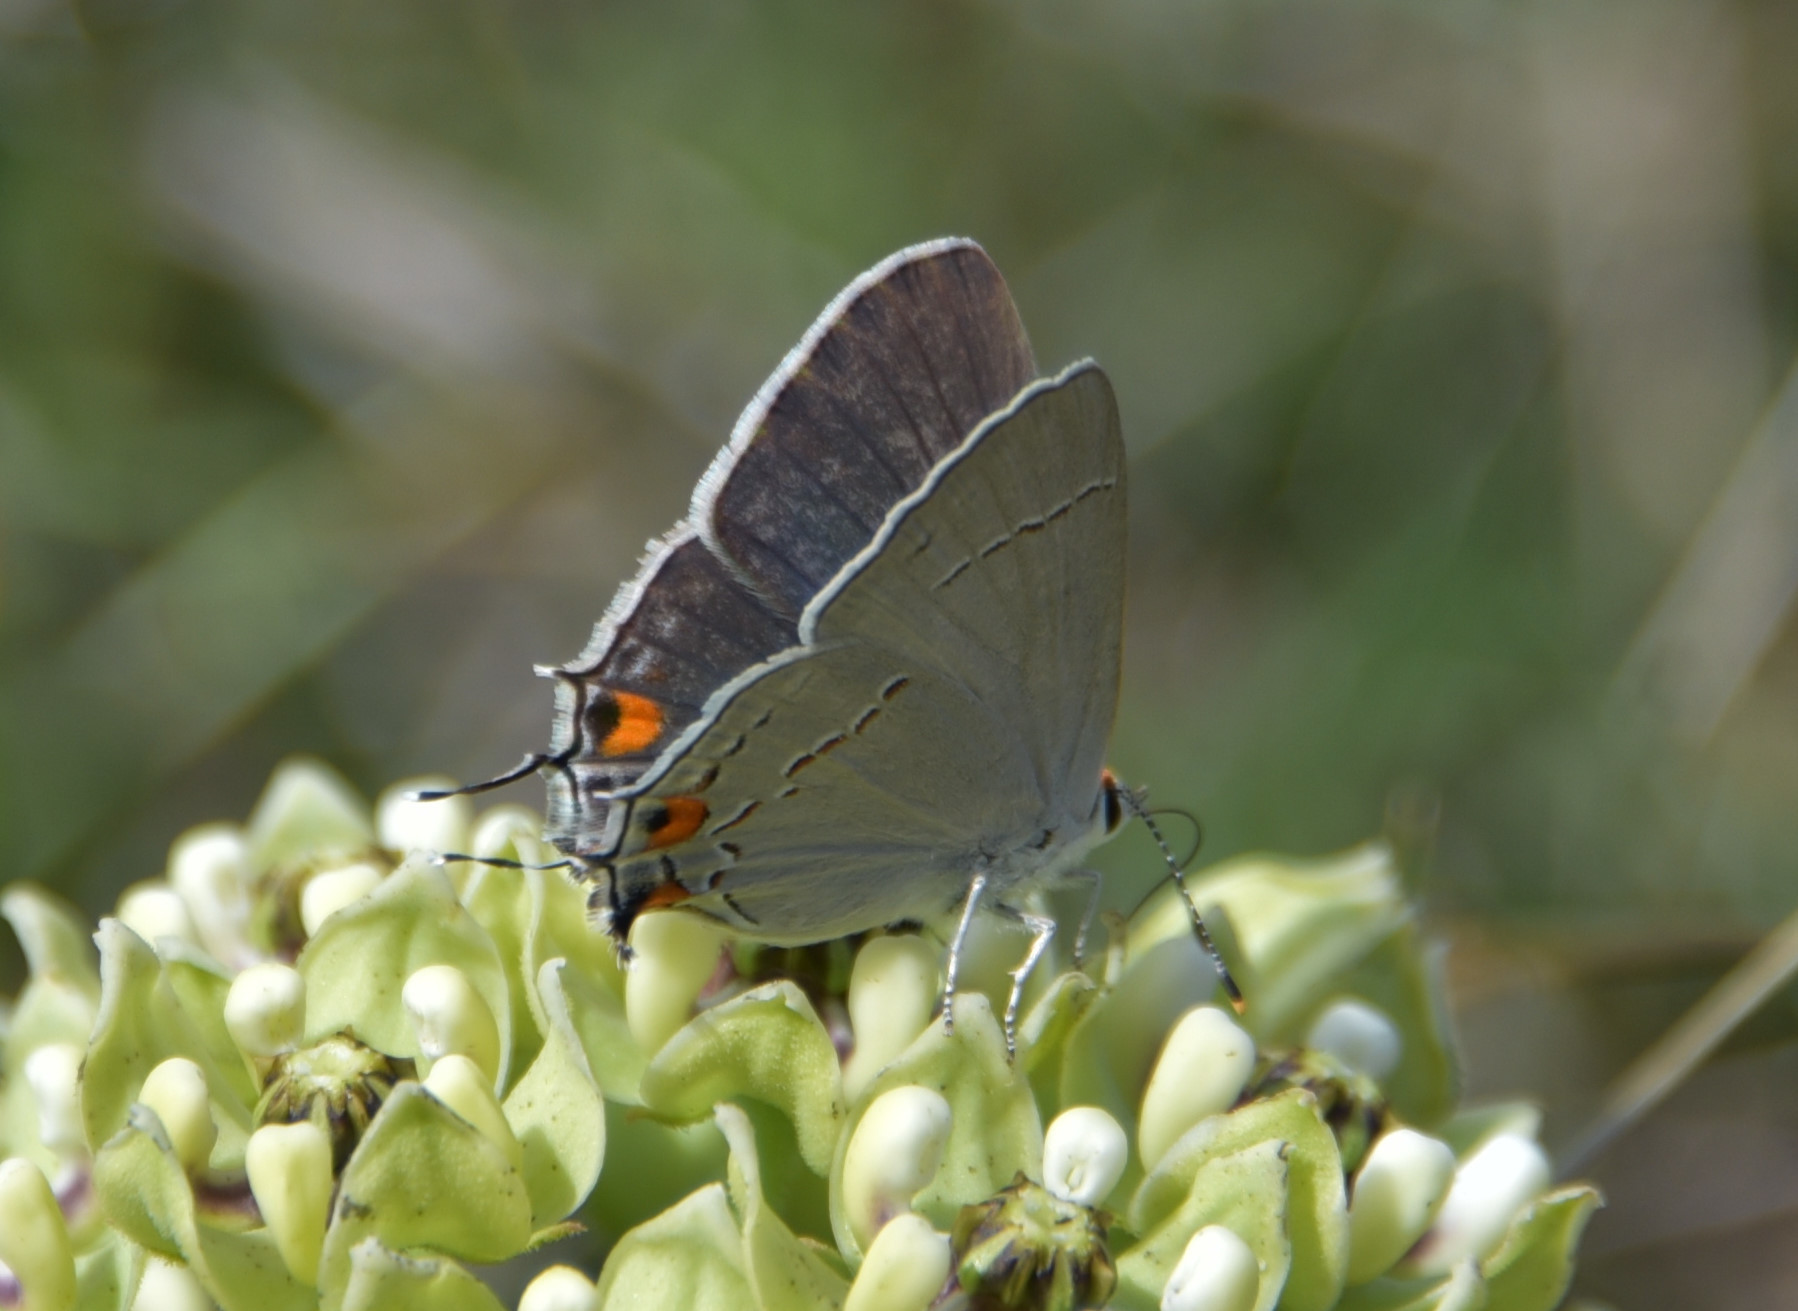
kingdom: Animalia
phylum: Arthropoda
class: Insecta
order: Lepidoptera
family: Lycaenidae
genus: Strymon
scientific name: Strymon melinus
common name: Gray hairstreak
